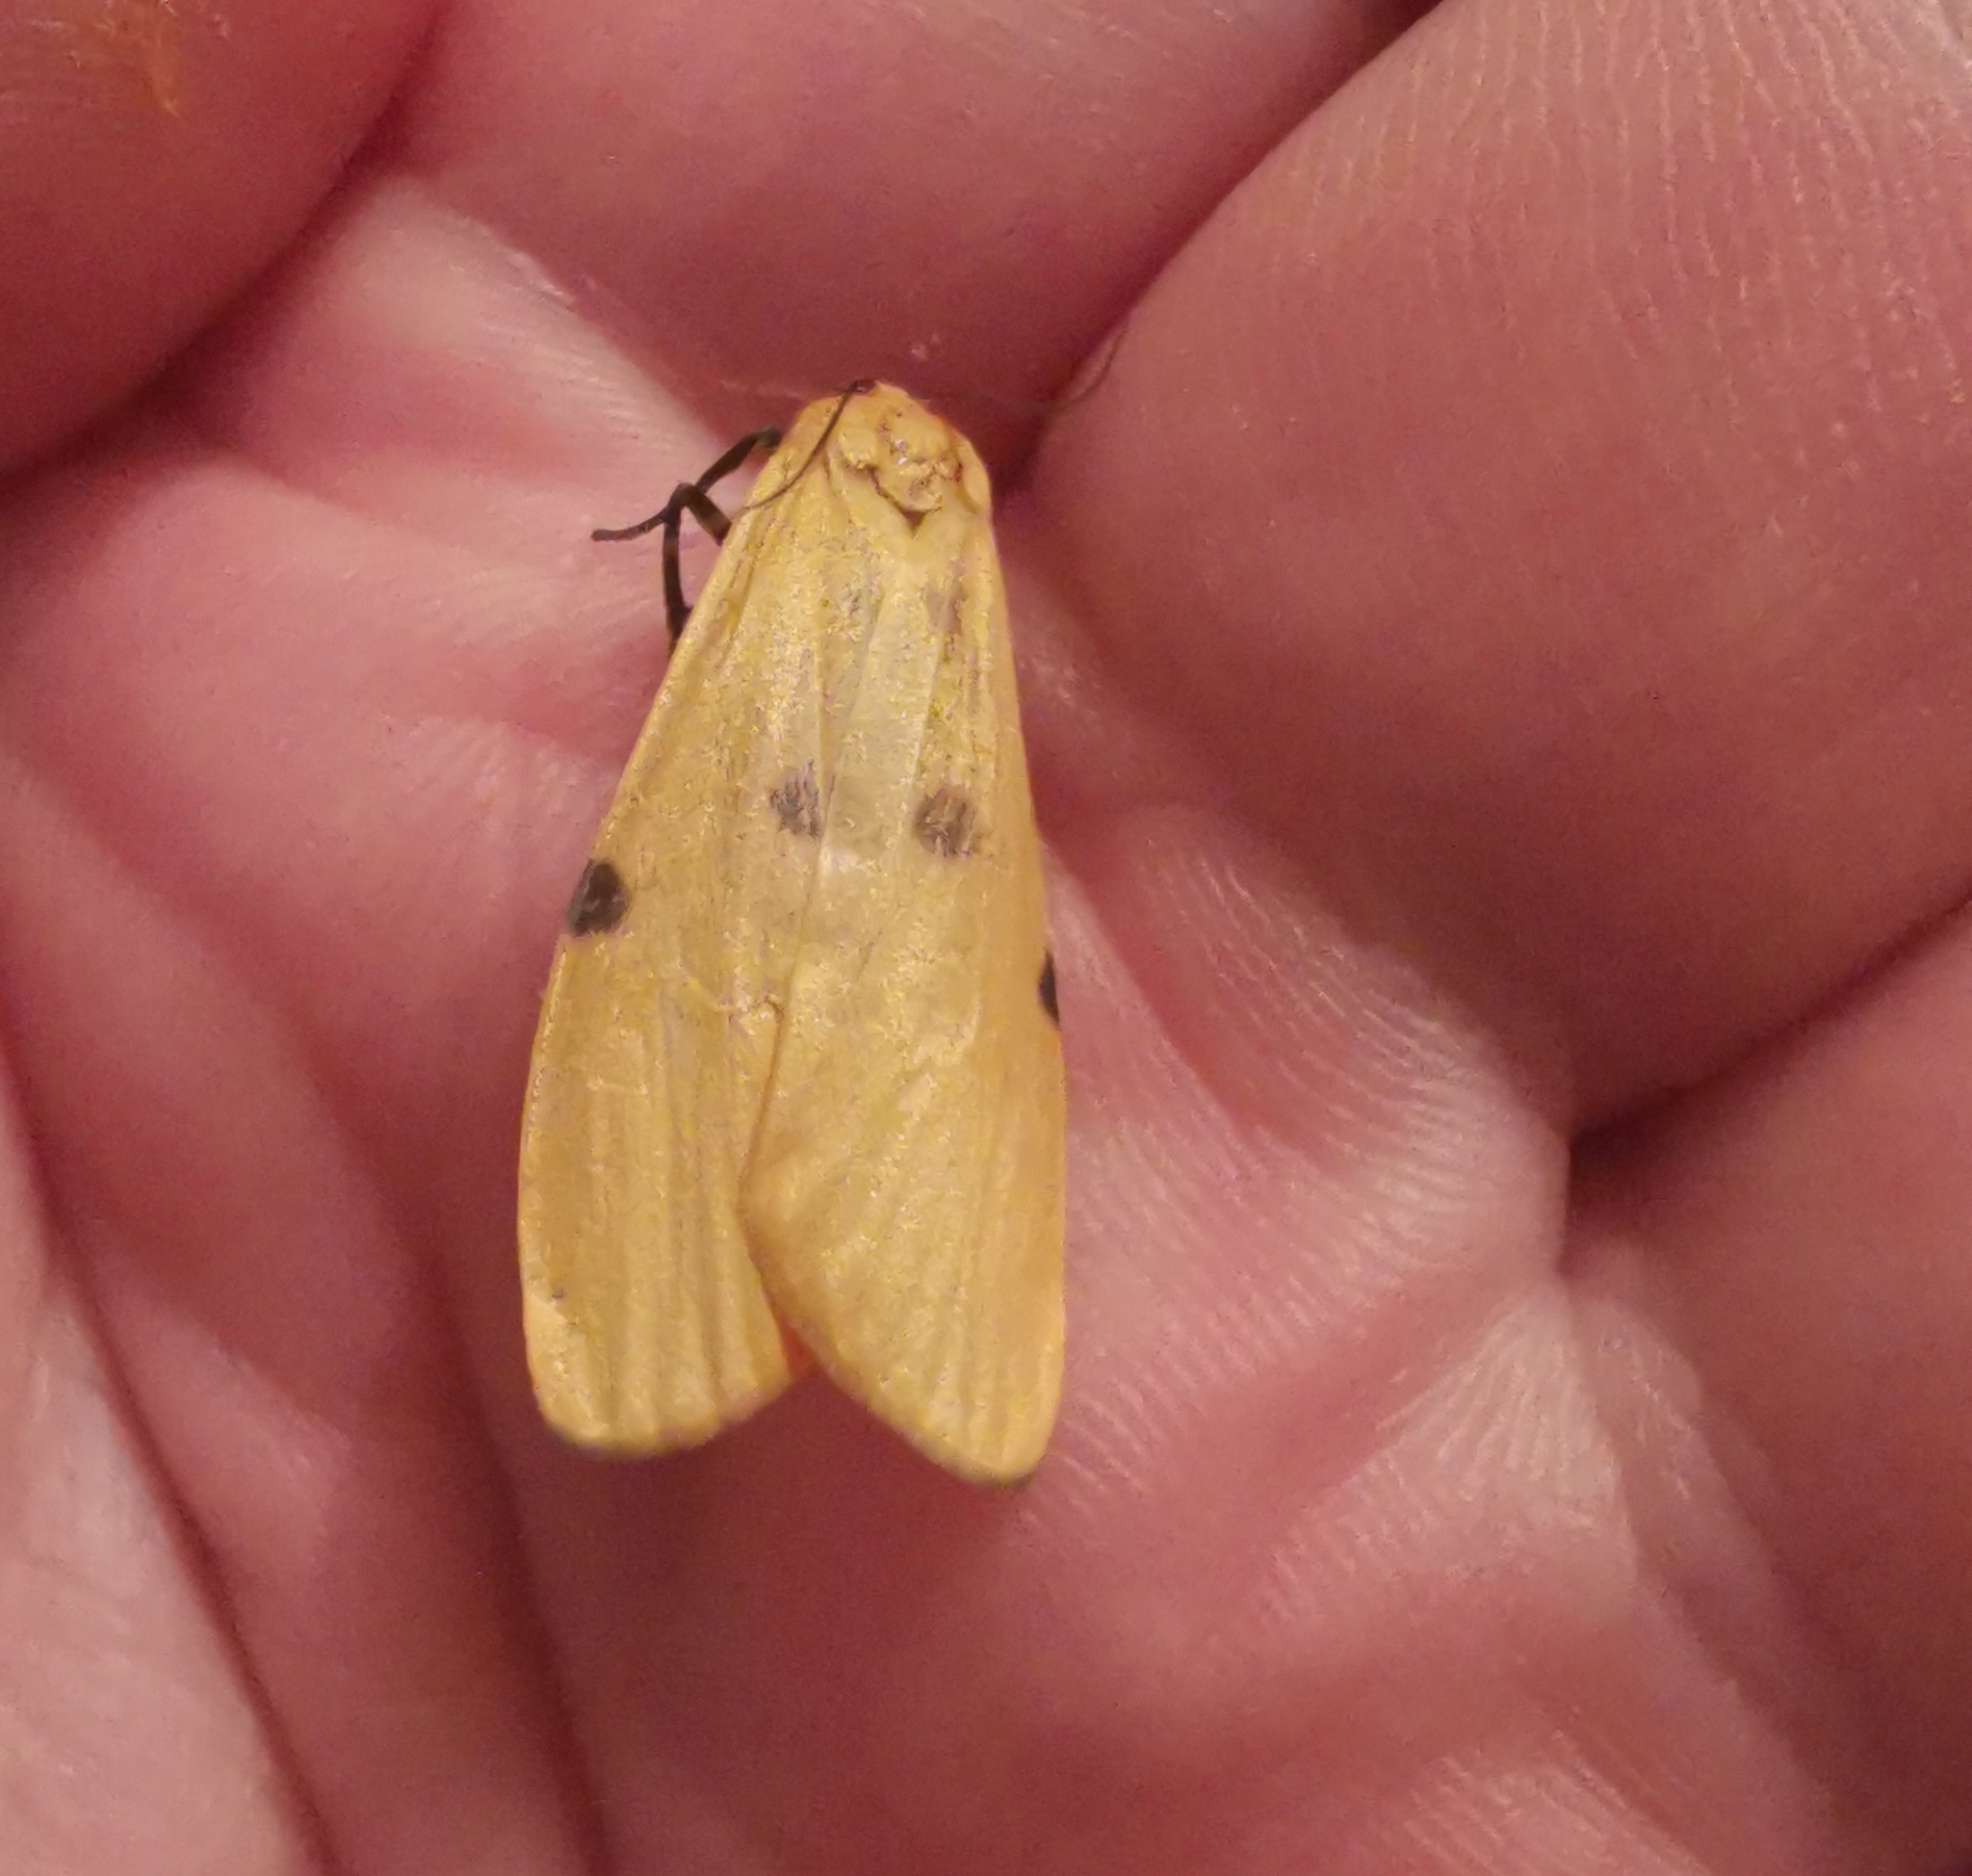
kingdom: Animalia
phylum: Arthropoda
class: Insecta
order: Lepidoptera
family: Erebidae
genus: Lithosia
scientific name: Lithosia quadra
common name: Four-spotted footman
